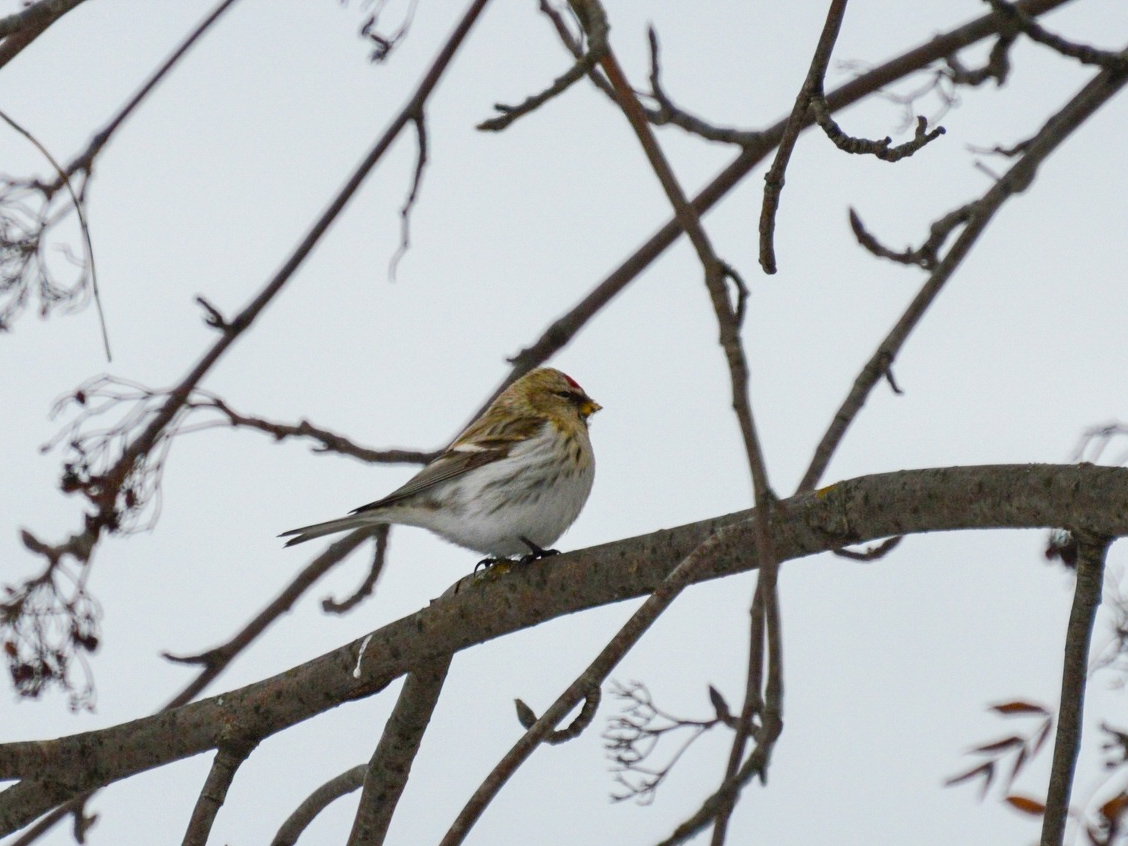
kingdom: Animalia
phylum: Chordata
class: Aves
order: Passeriformes
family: Fringillidae
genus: Acanthis
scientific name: Acanthis hornemanni
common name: Arctic redpoll
